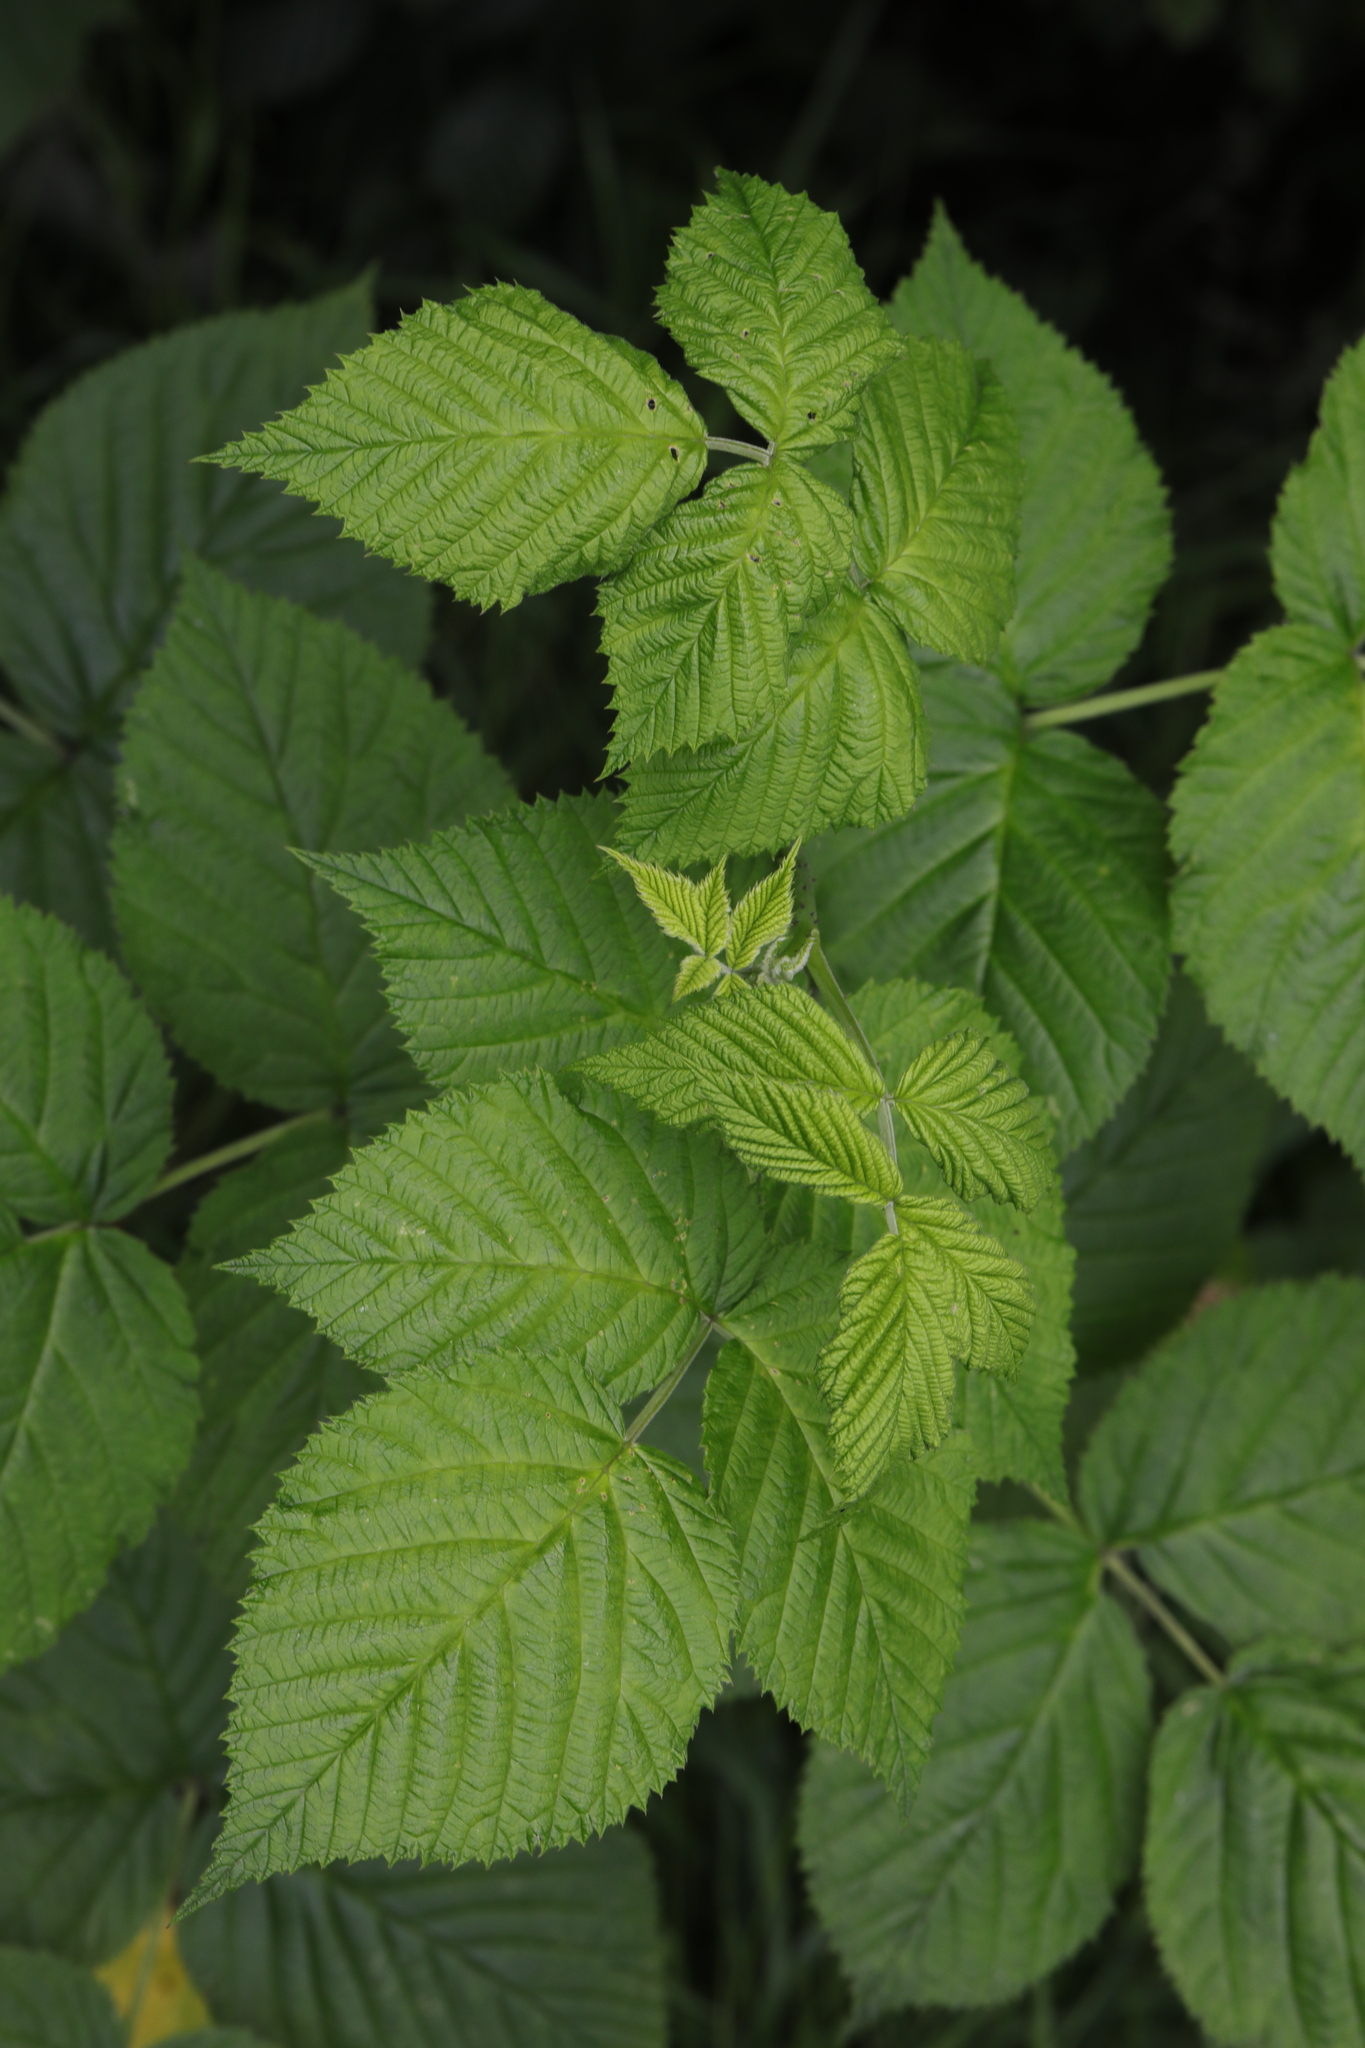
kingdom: Plantae
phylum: Tracheophyta
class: Magnoliopsida
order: Rosales
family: Rosaceae
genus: Rubus
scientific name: Rubus idaeus
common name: Raspberry
